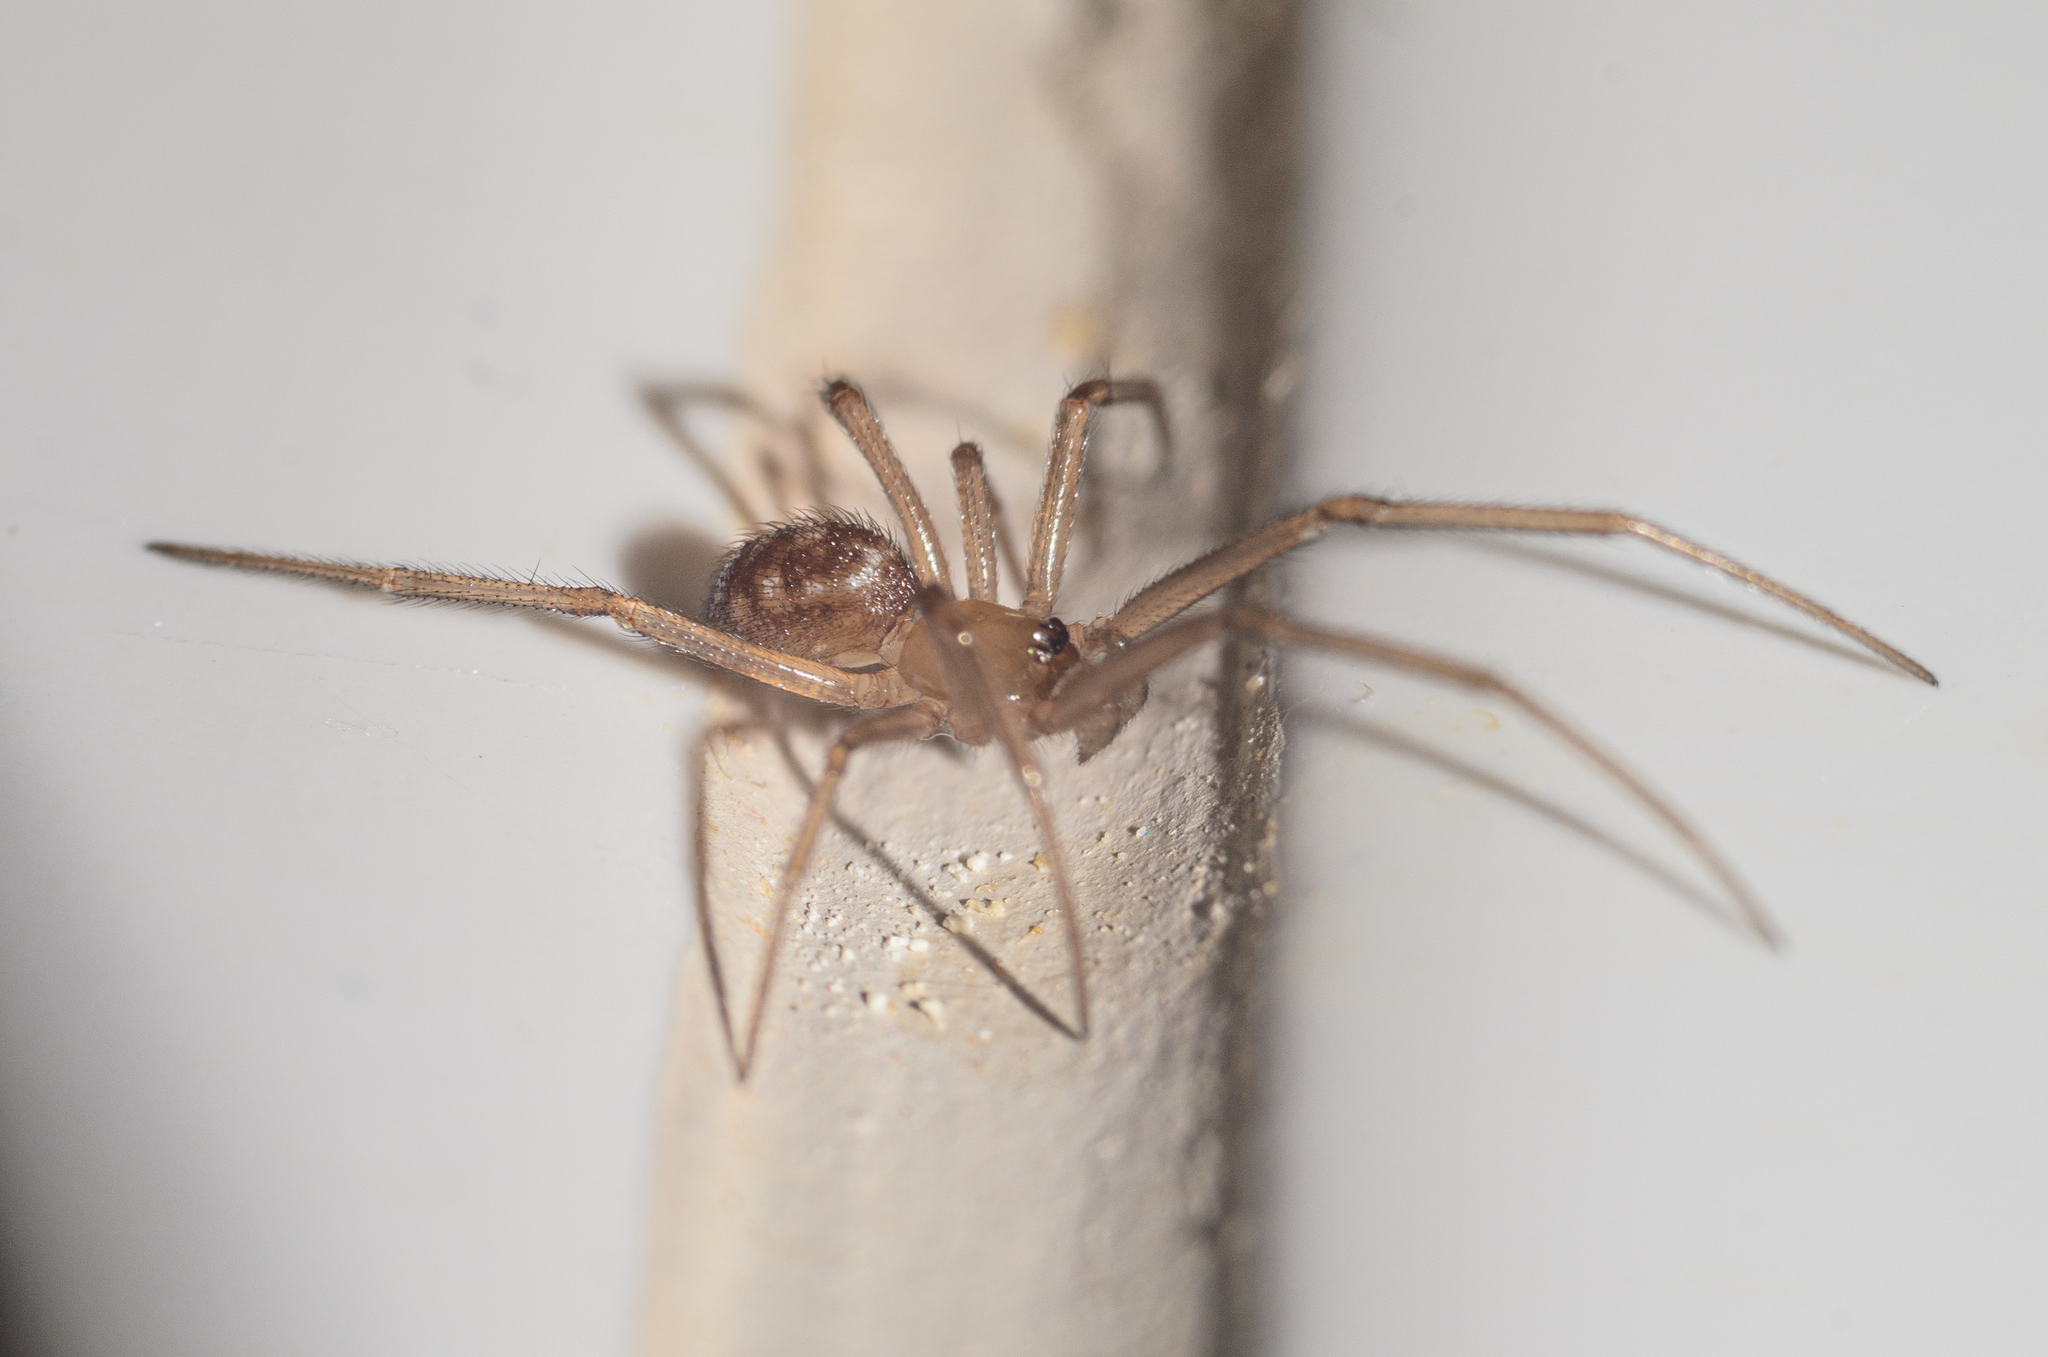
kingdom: Animalia
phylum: Arthropoda
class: Arachnida
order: Araneae
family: Theridiidae
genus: Steatoda
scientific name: Steatoda grossa
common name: False black widow
